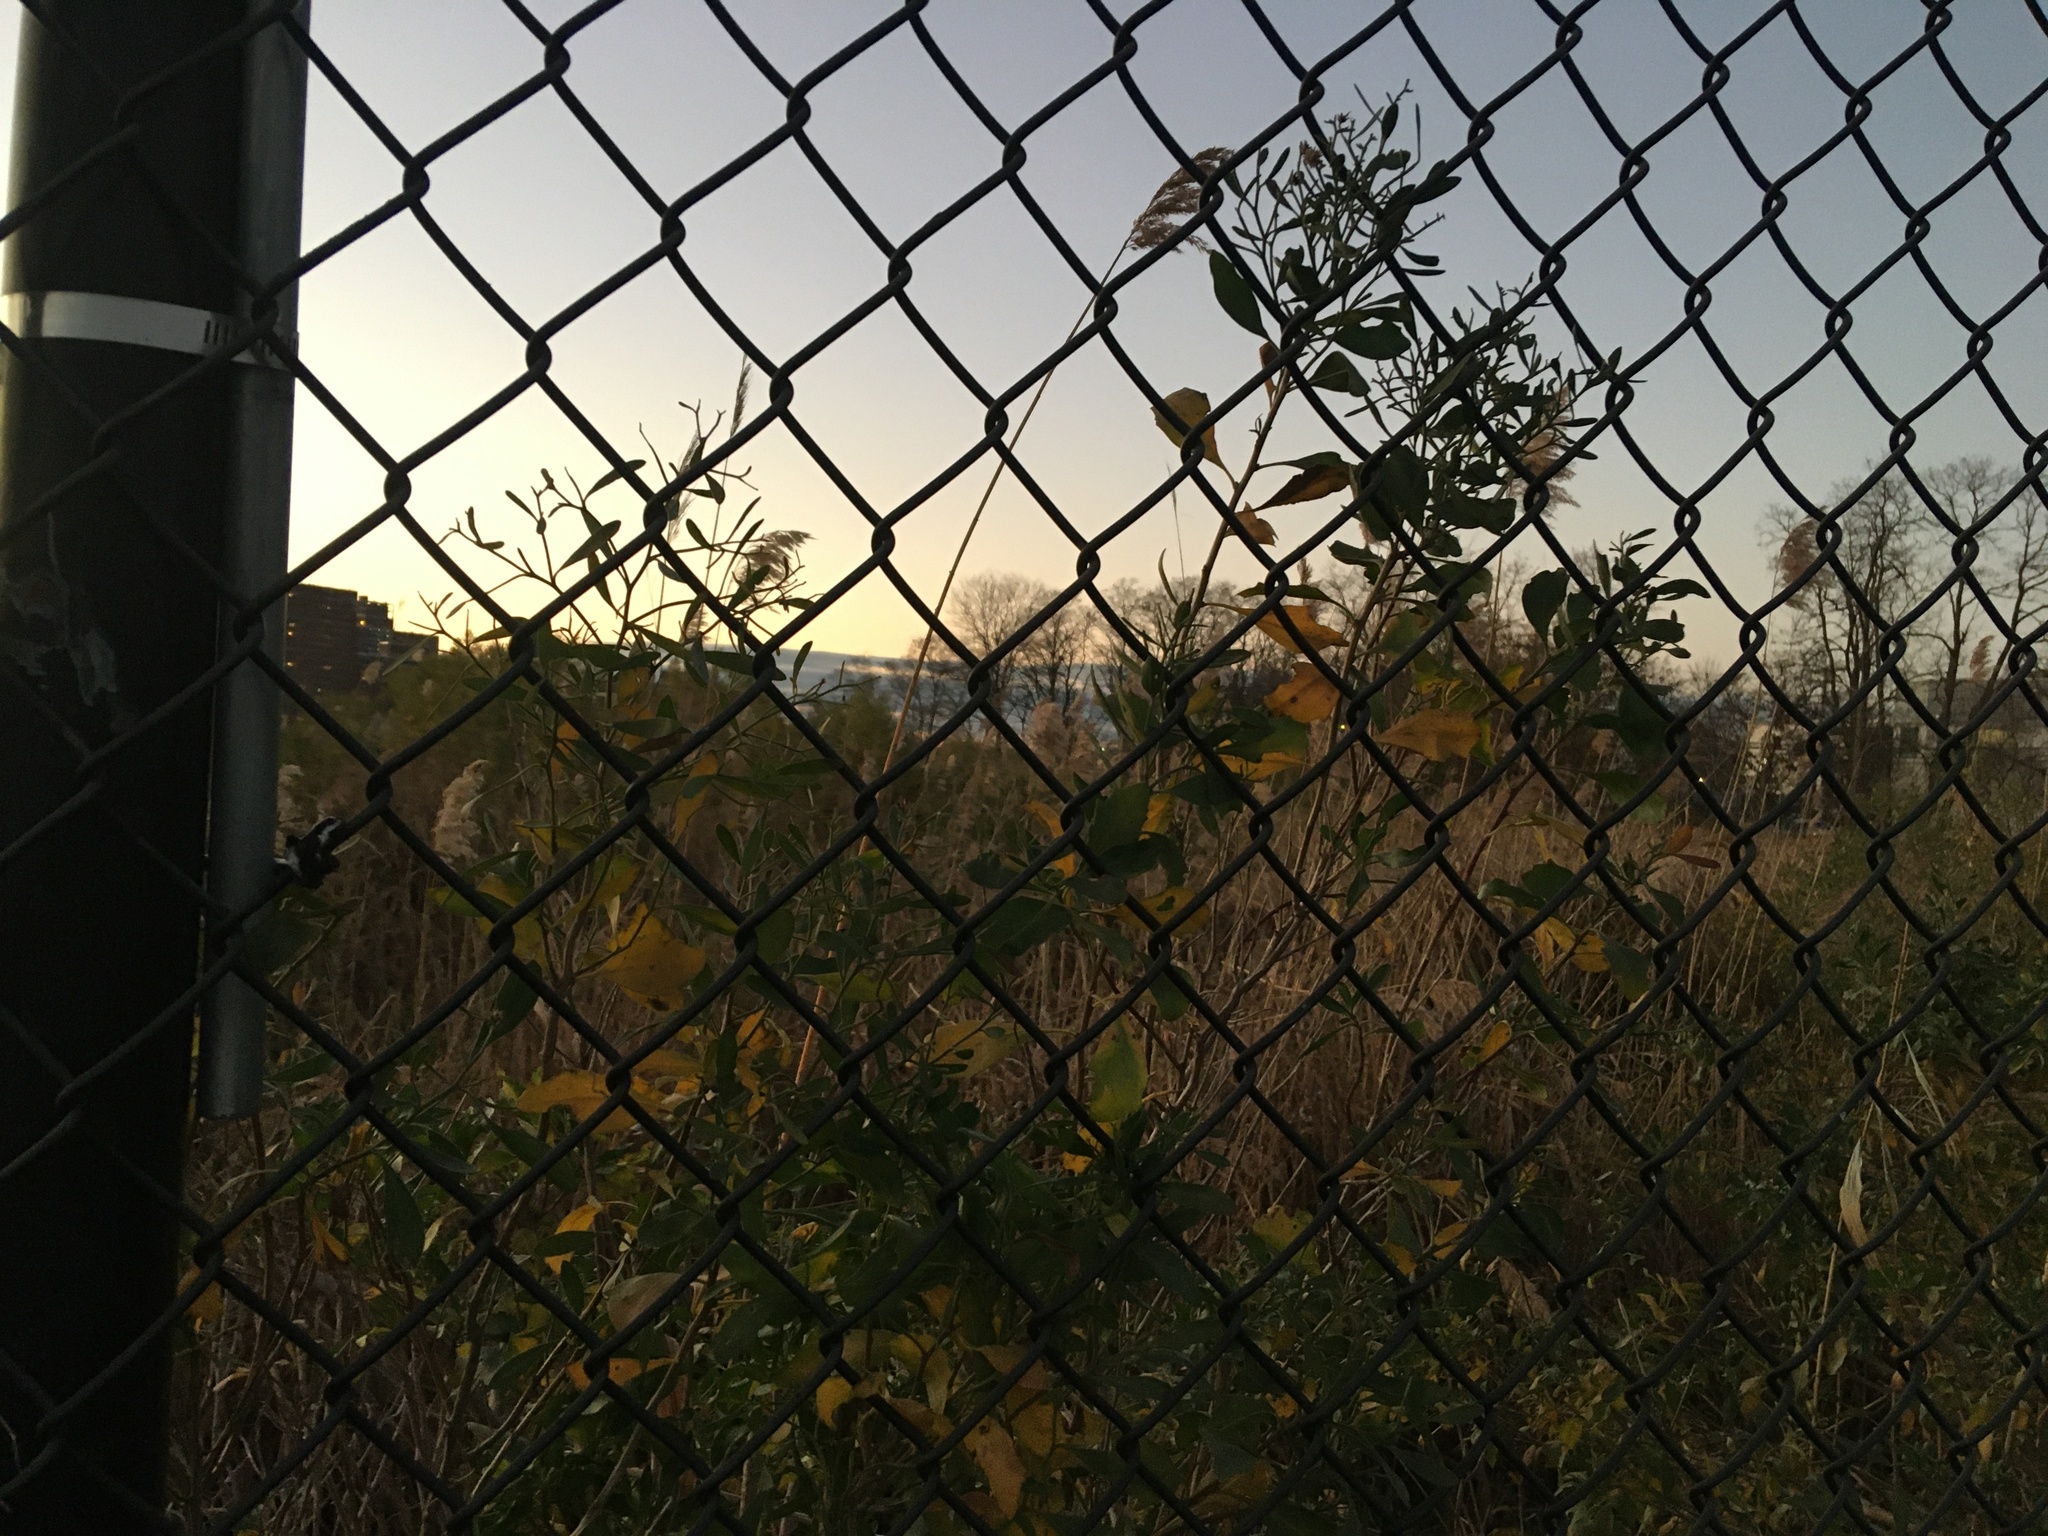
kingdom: Plantae
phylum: Tracheophyta
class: Magnoliopsida
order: Asterales
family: Asteraceae
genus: Baccharis
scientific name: Baccharis halimifolia
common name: Eastern baccharis
